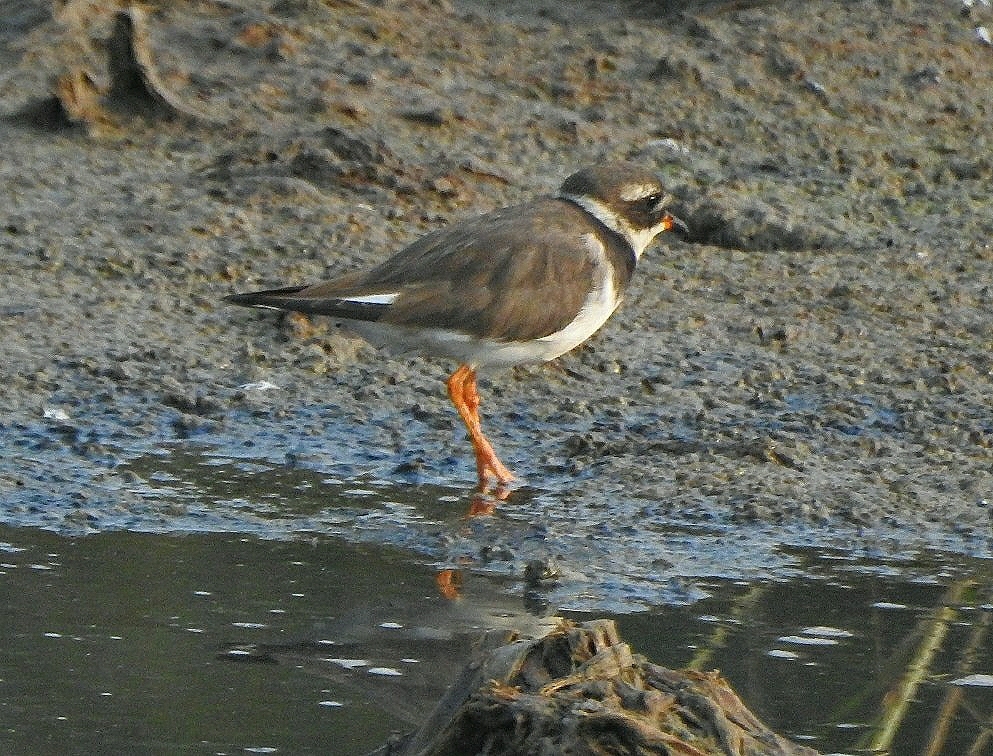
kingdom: Animalia
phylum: Chordata
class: Aves
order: Charadriiformes
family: Charadriidae
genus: Charadrius
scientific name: Charadrius hiaticula
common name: Common ringed plover
